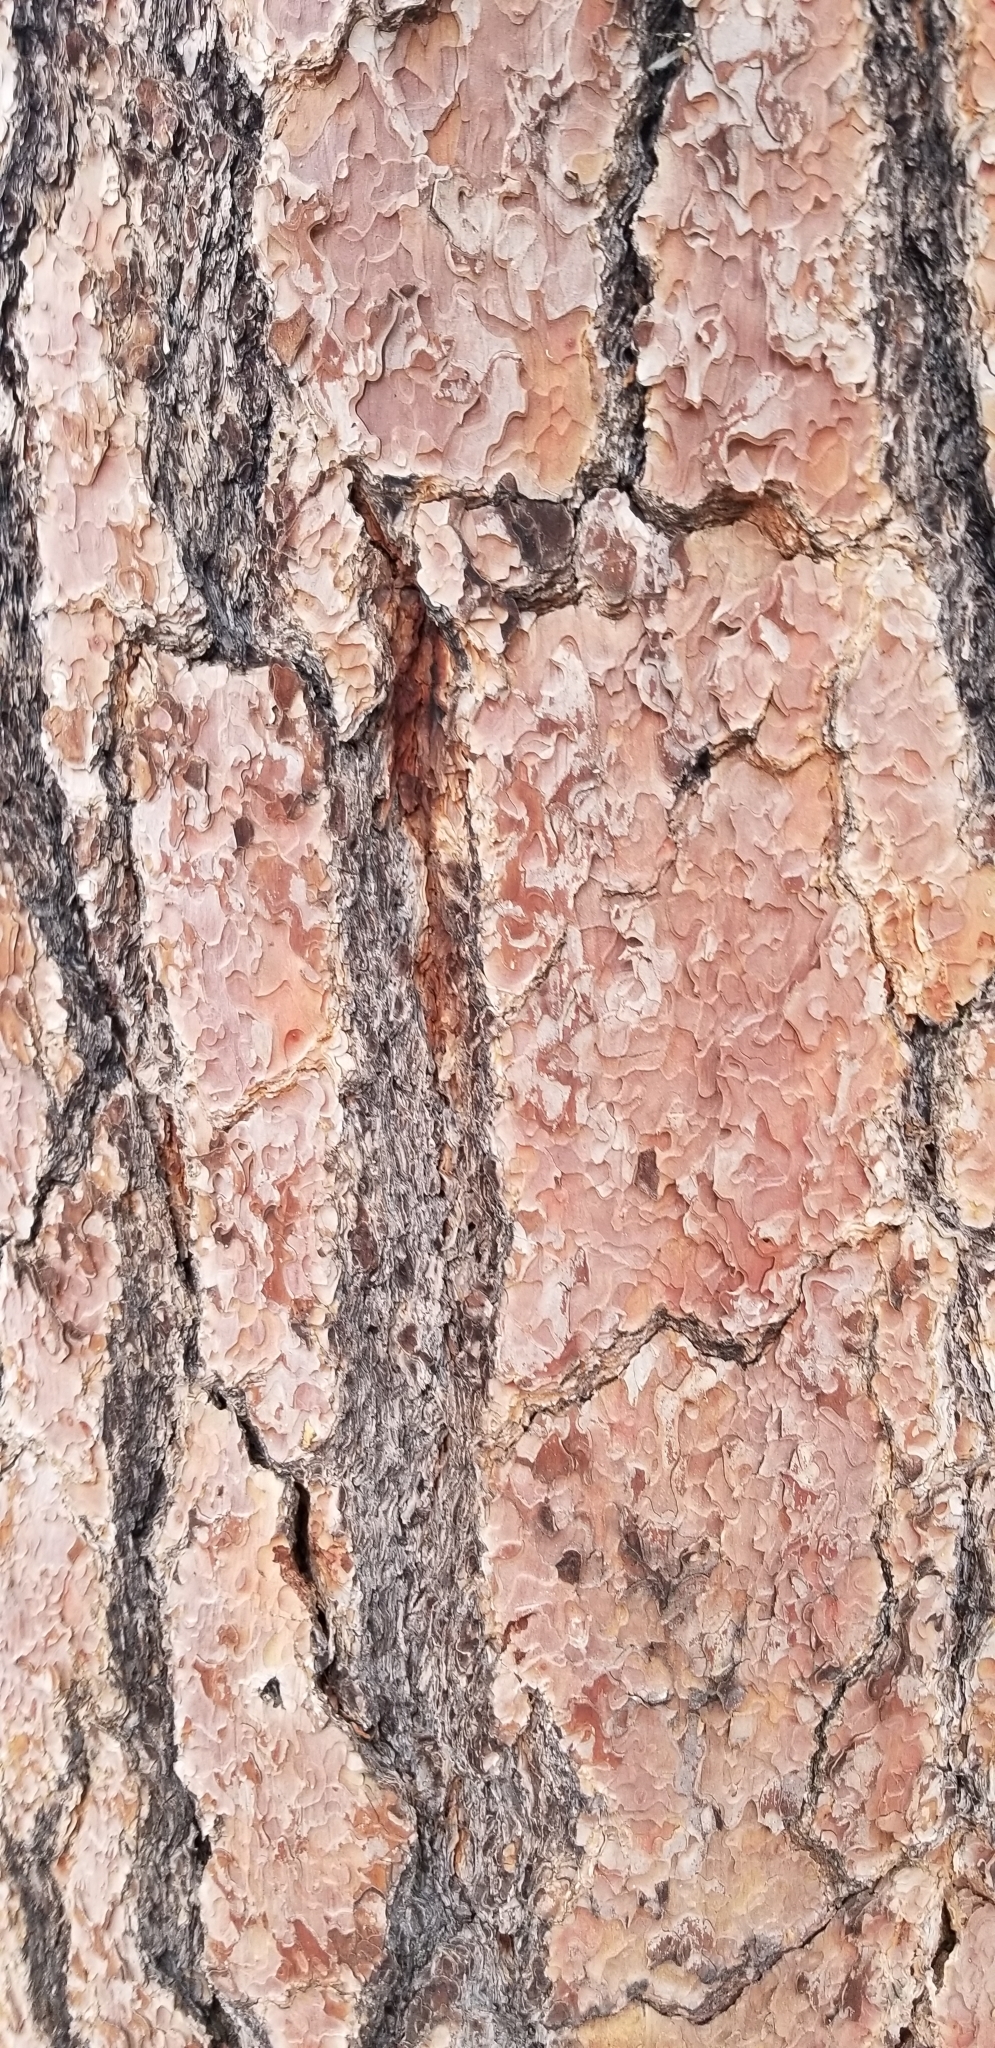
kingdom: Plantae
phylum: Tracheophyta
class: Pinopsida
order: Pinales
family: Pinaceae
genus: Pinus
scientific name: Pinus jeffreyi
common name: Jeffrey pine
